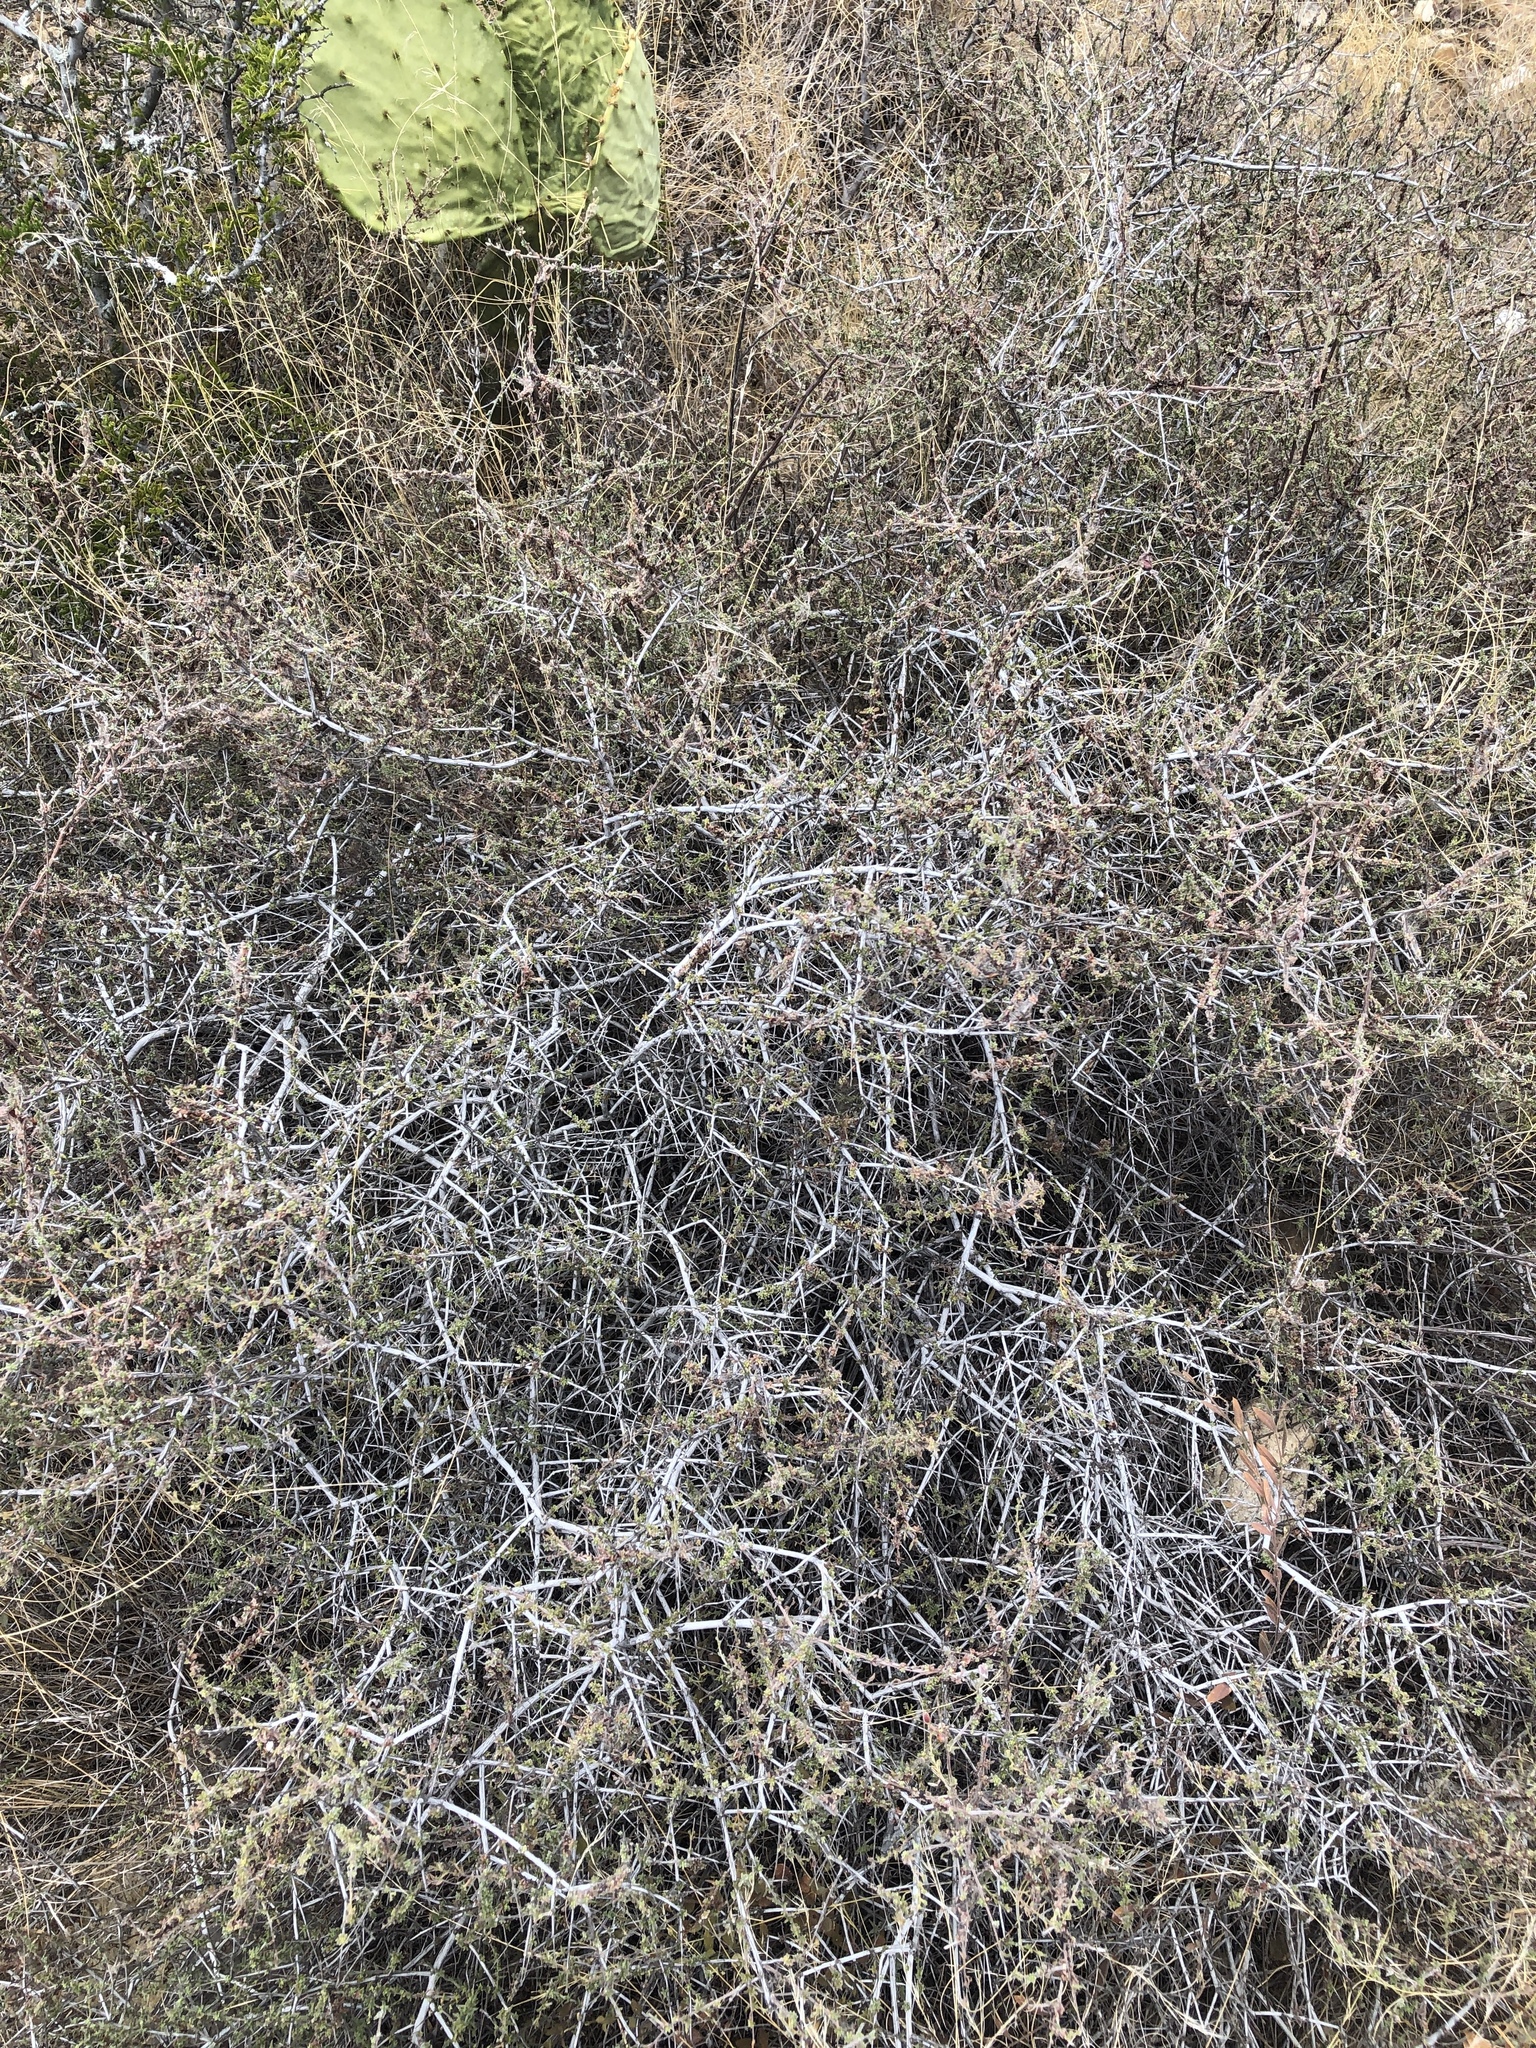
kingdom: Plantae
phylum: Tracheophyta
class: Magnoliopsida
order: Zygophyllales
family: Krameriaceae
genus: Krameria
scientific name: Krameria ramosissima
